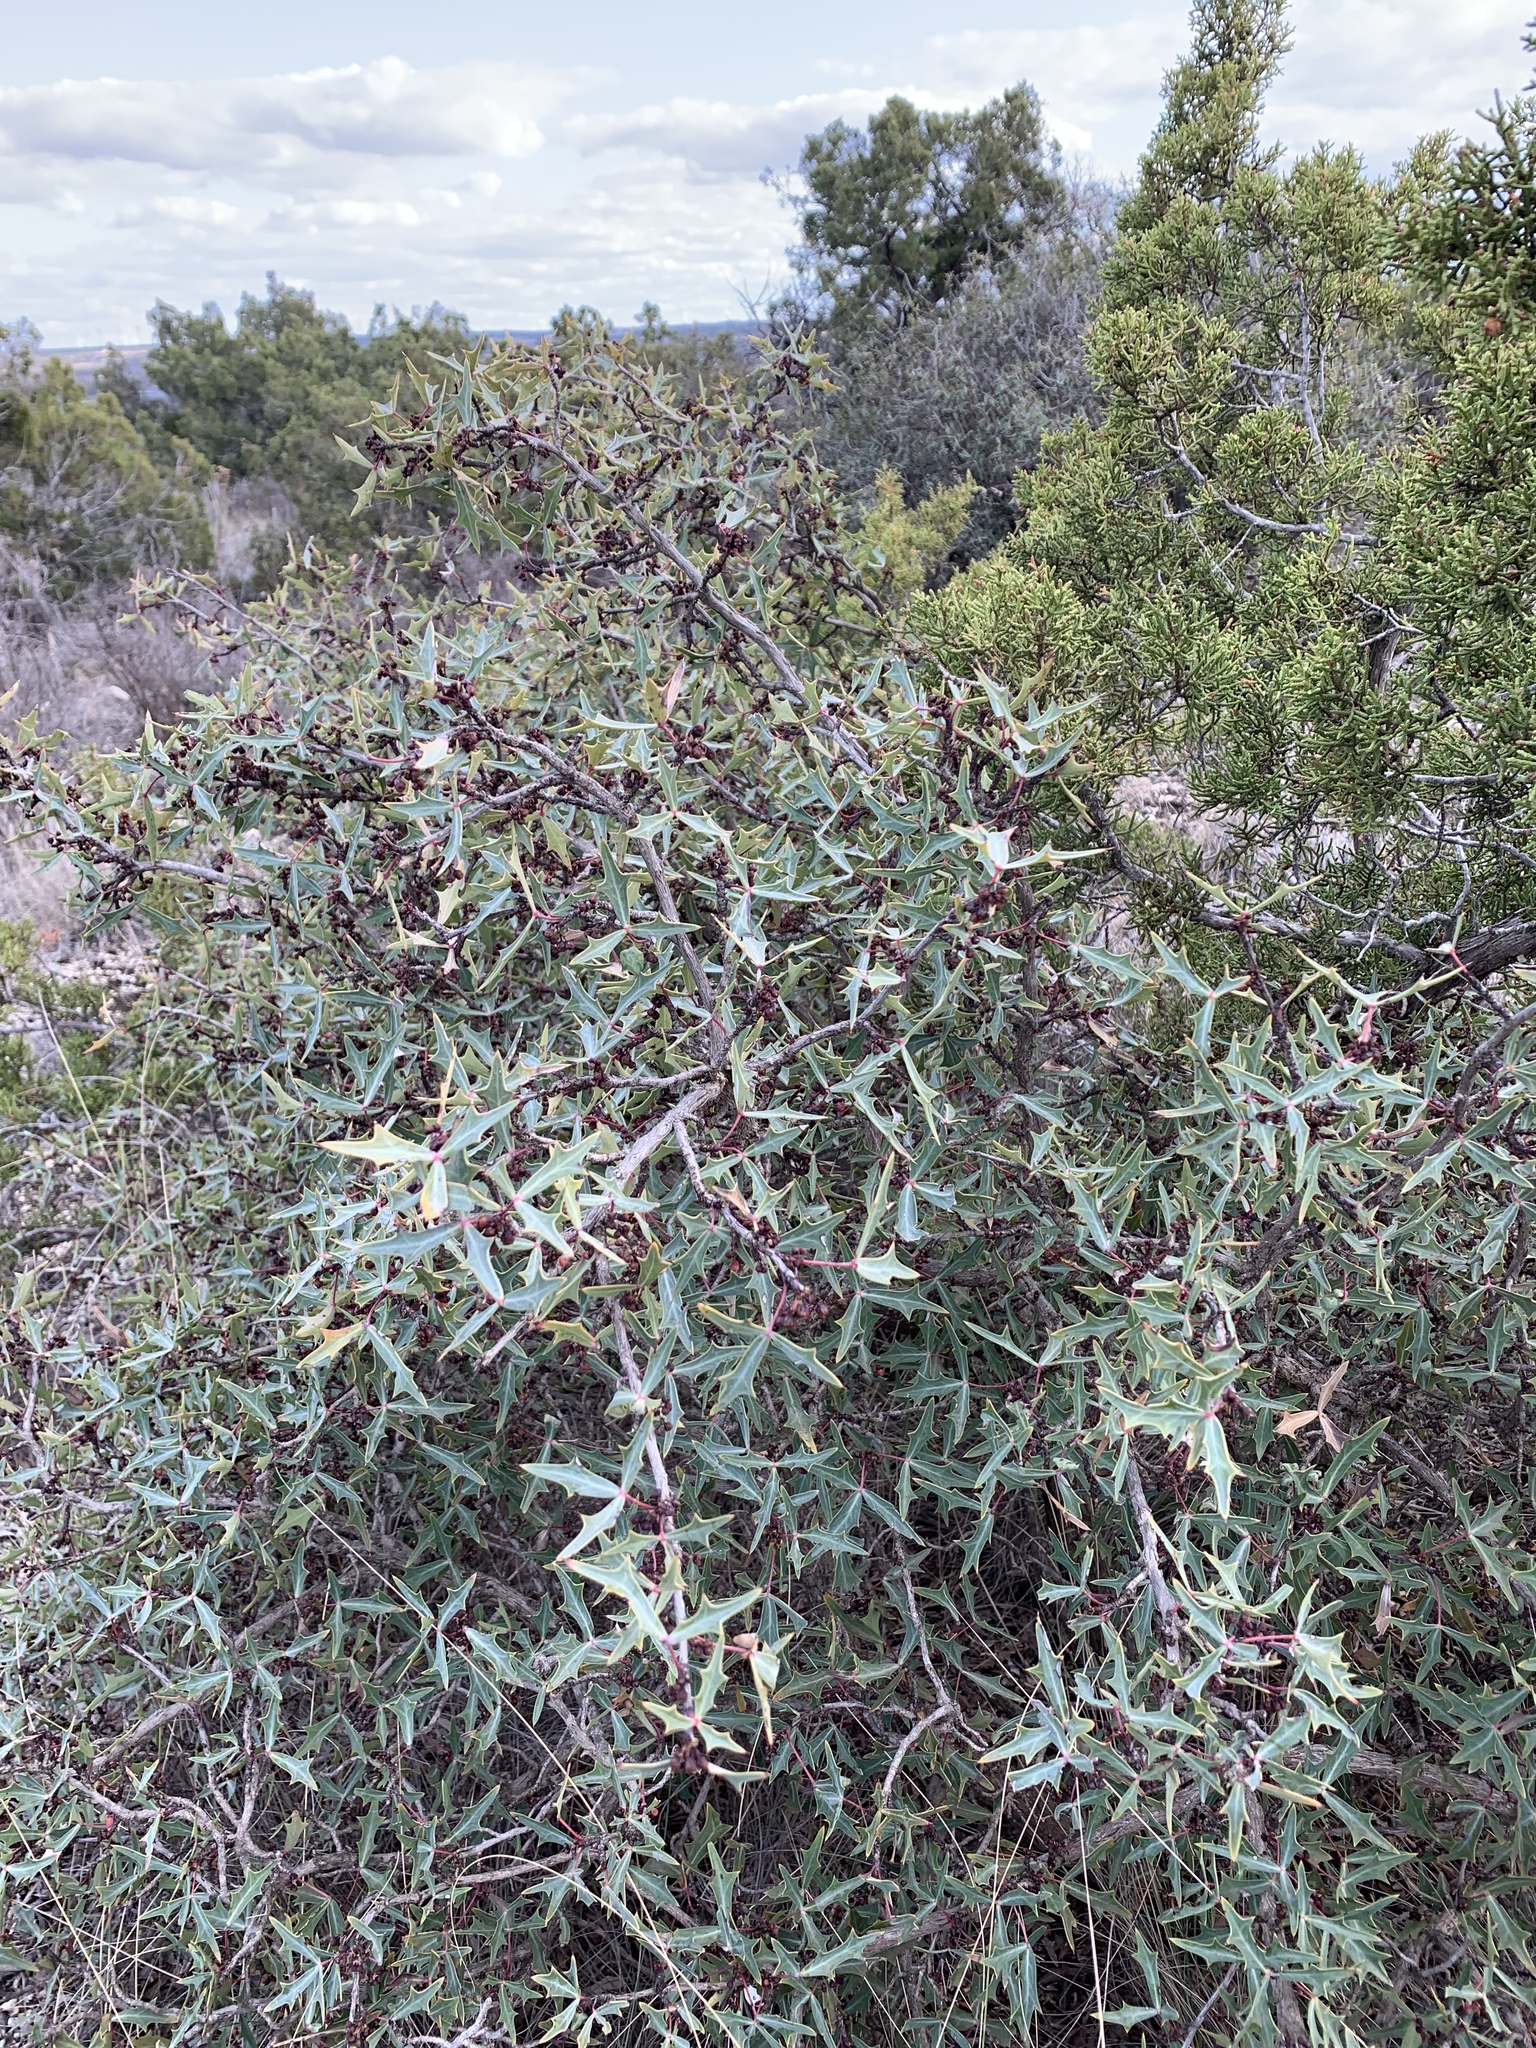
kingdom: Plantae
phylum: Tracheophyta
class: Magnoliopsida
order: Ranunculales
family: Berberidaceae
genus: Alloberberis
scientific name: Alloberberis trifoliolata
